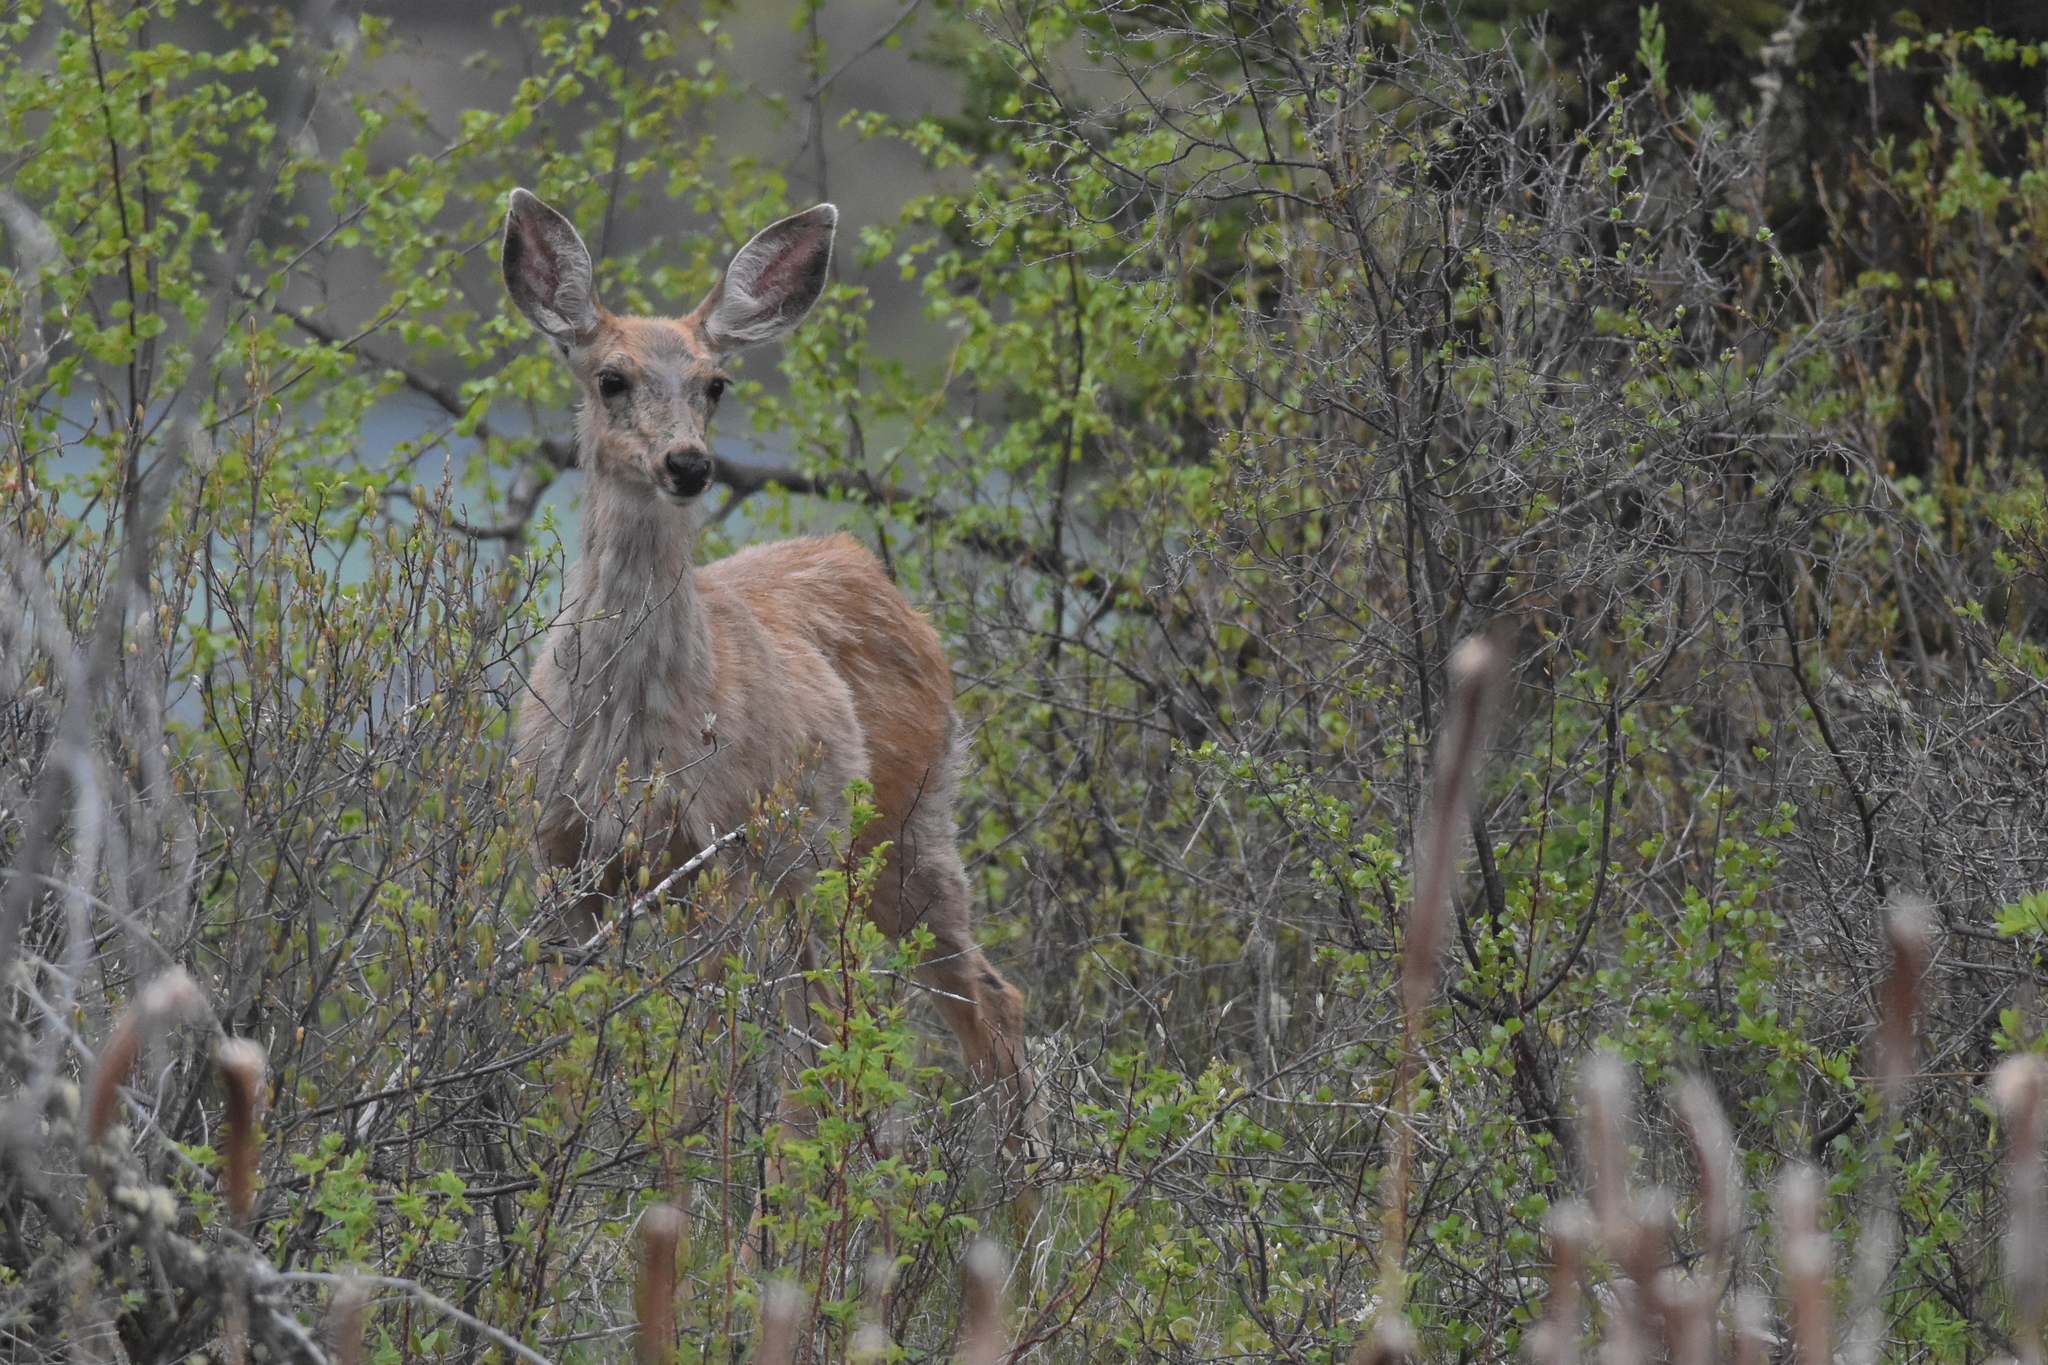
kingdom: Animalia
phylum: Chordata
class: Mammalia
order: Artiodactyla
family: Cervidae
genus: Odocoileus
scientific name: Odocoileus hemionus
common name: Mule deer
